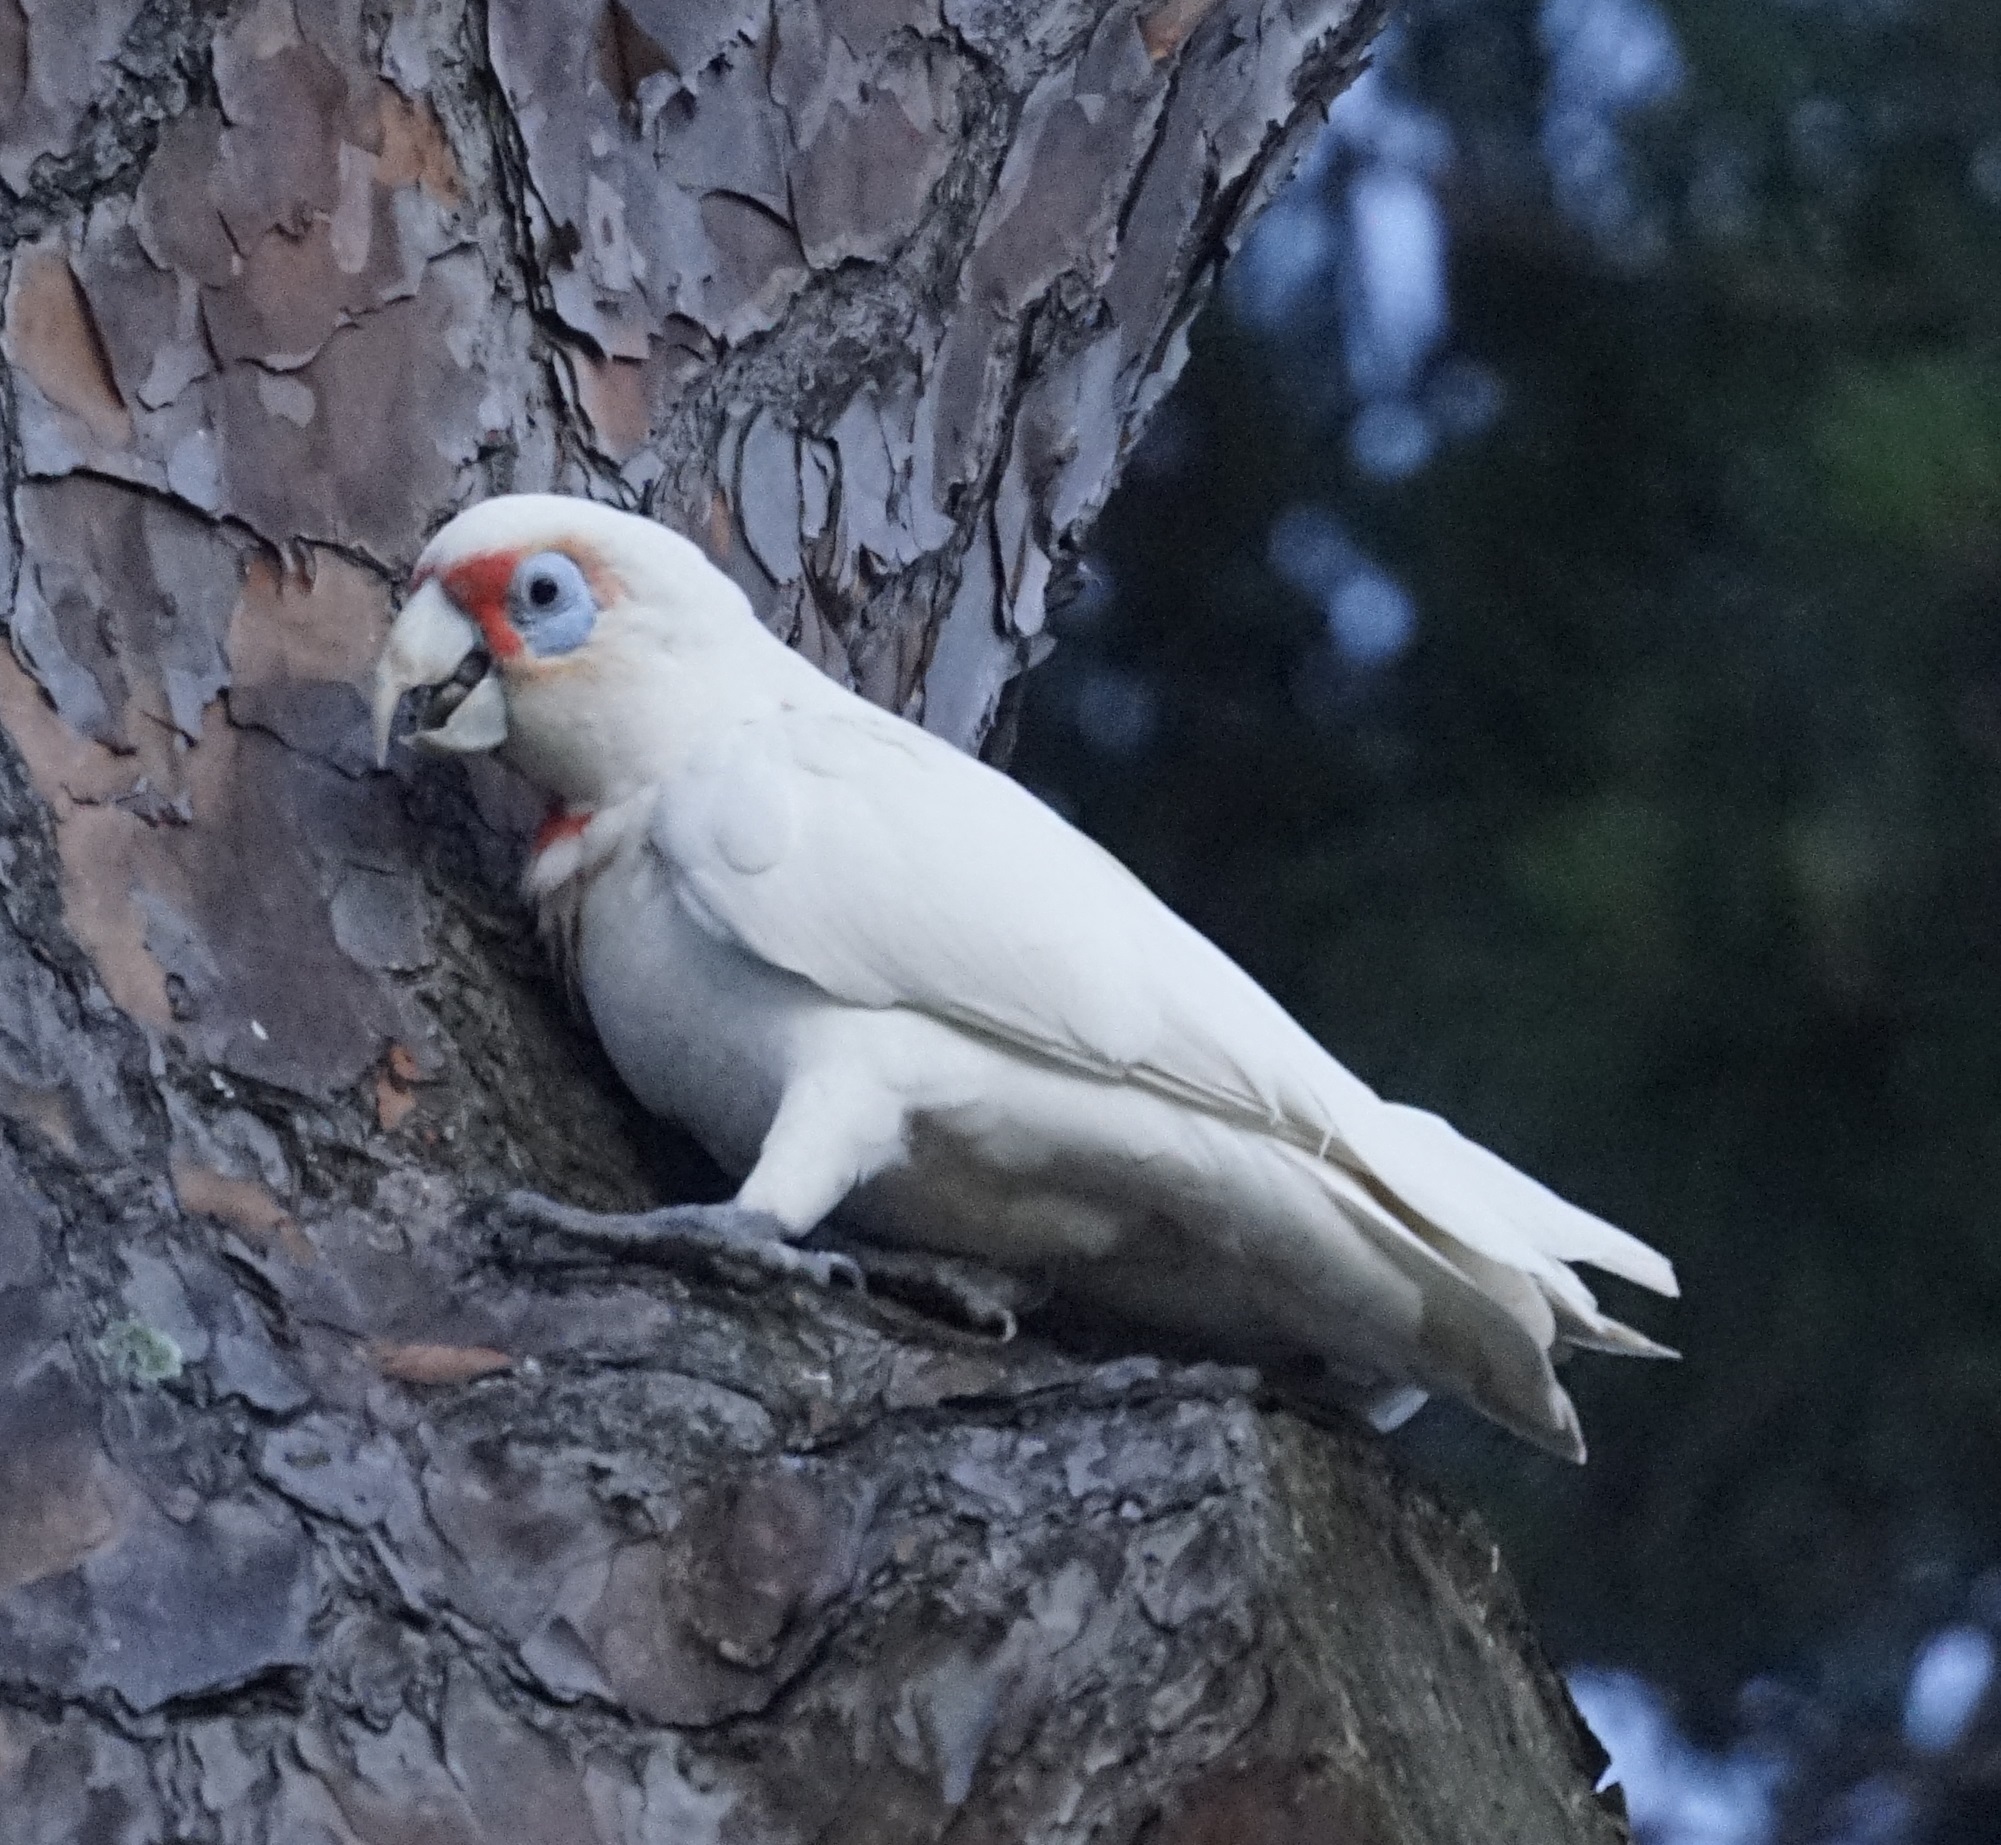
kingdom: Animalia
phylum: Chordata
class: Aves
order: Psittaciformes
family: Psittacidae
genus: Cacatua
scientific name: Cacatua tenuirostris
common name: Long-billed corella
